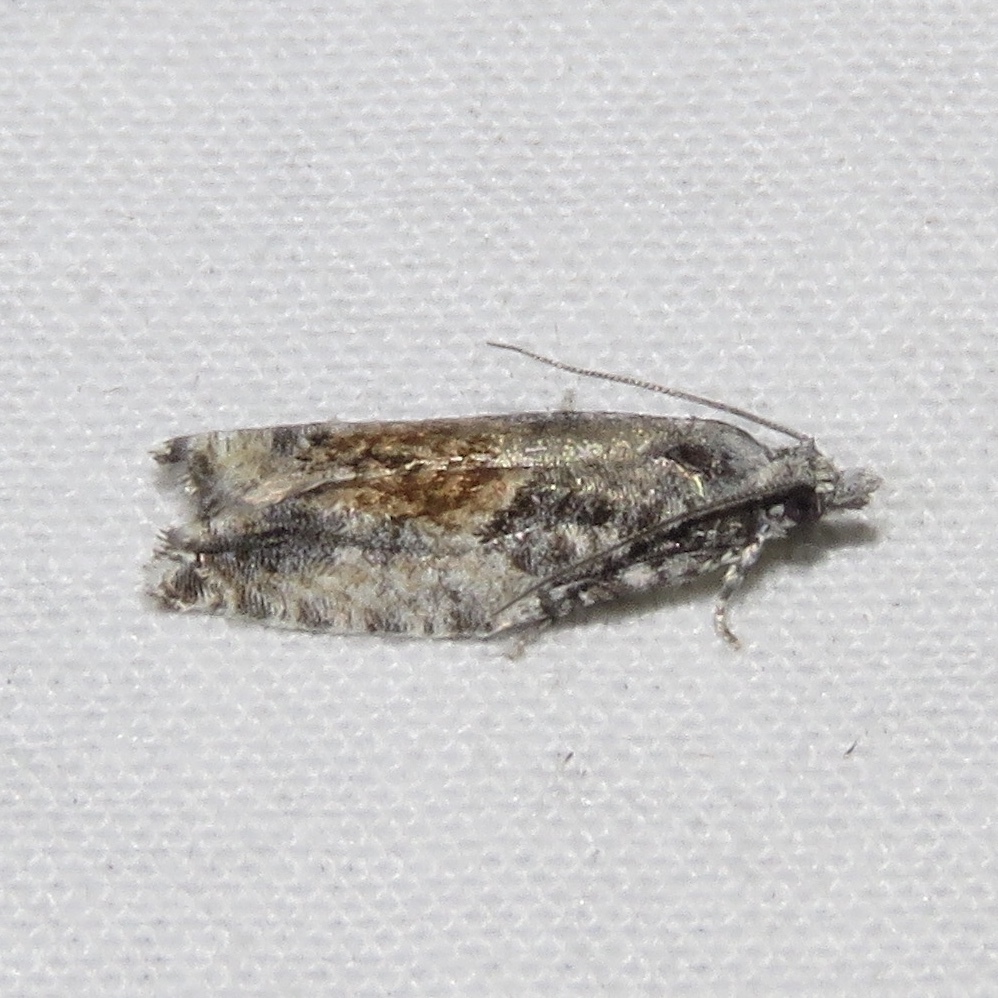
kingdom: Animalia
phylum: Arthropoda
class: Insecta
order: Lepidoptera
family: Tortricidae
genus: Epinotia
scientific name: Epinotia nisella
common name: Grey poplar bell
